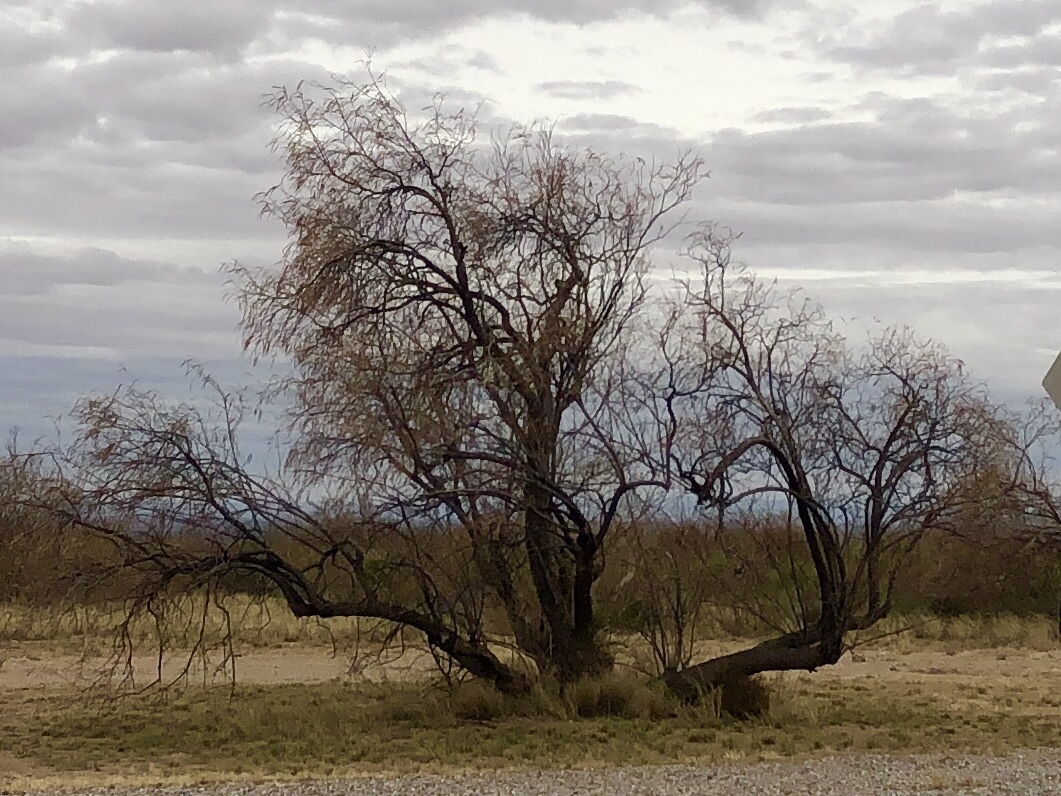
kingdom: Plantae
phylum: Tracheophyta
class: Magnoliopsida
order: Lamiales
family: Bignoniaceae
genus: Chilopsis
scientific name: Chilopsis linearis
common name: Desert-willow
